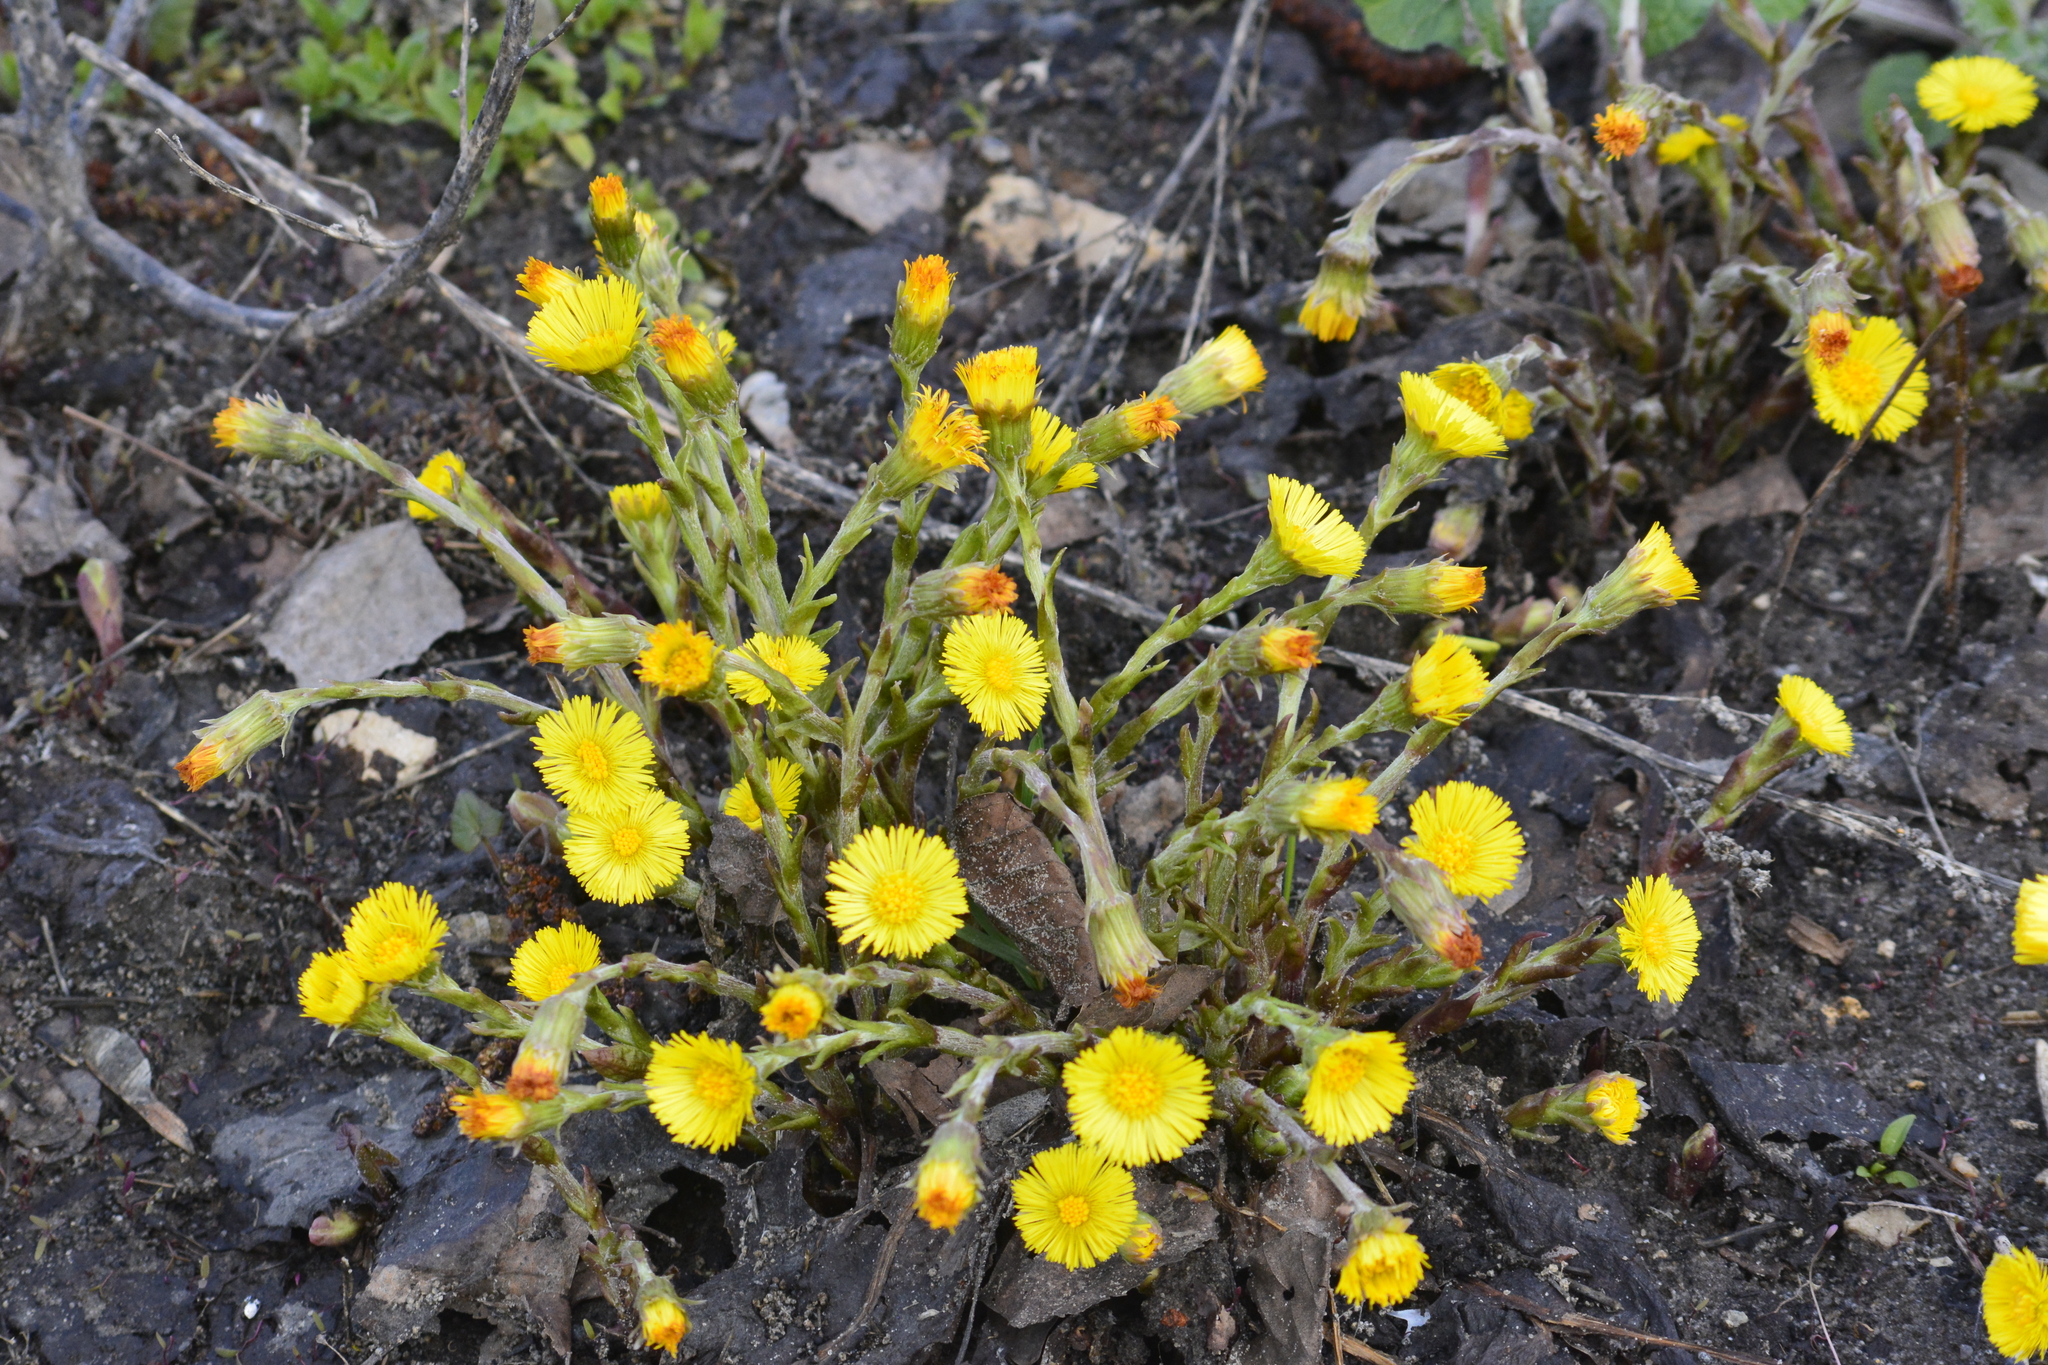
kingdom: Plantae
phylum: Tracheophyta
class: Magnoliopsida
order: Asterales
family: Asteraceae
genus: Tussilago
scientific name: Tussilago farfara
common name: Coltsfoot
